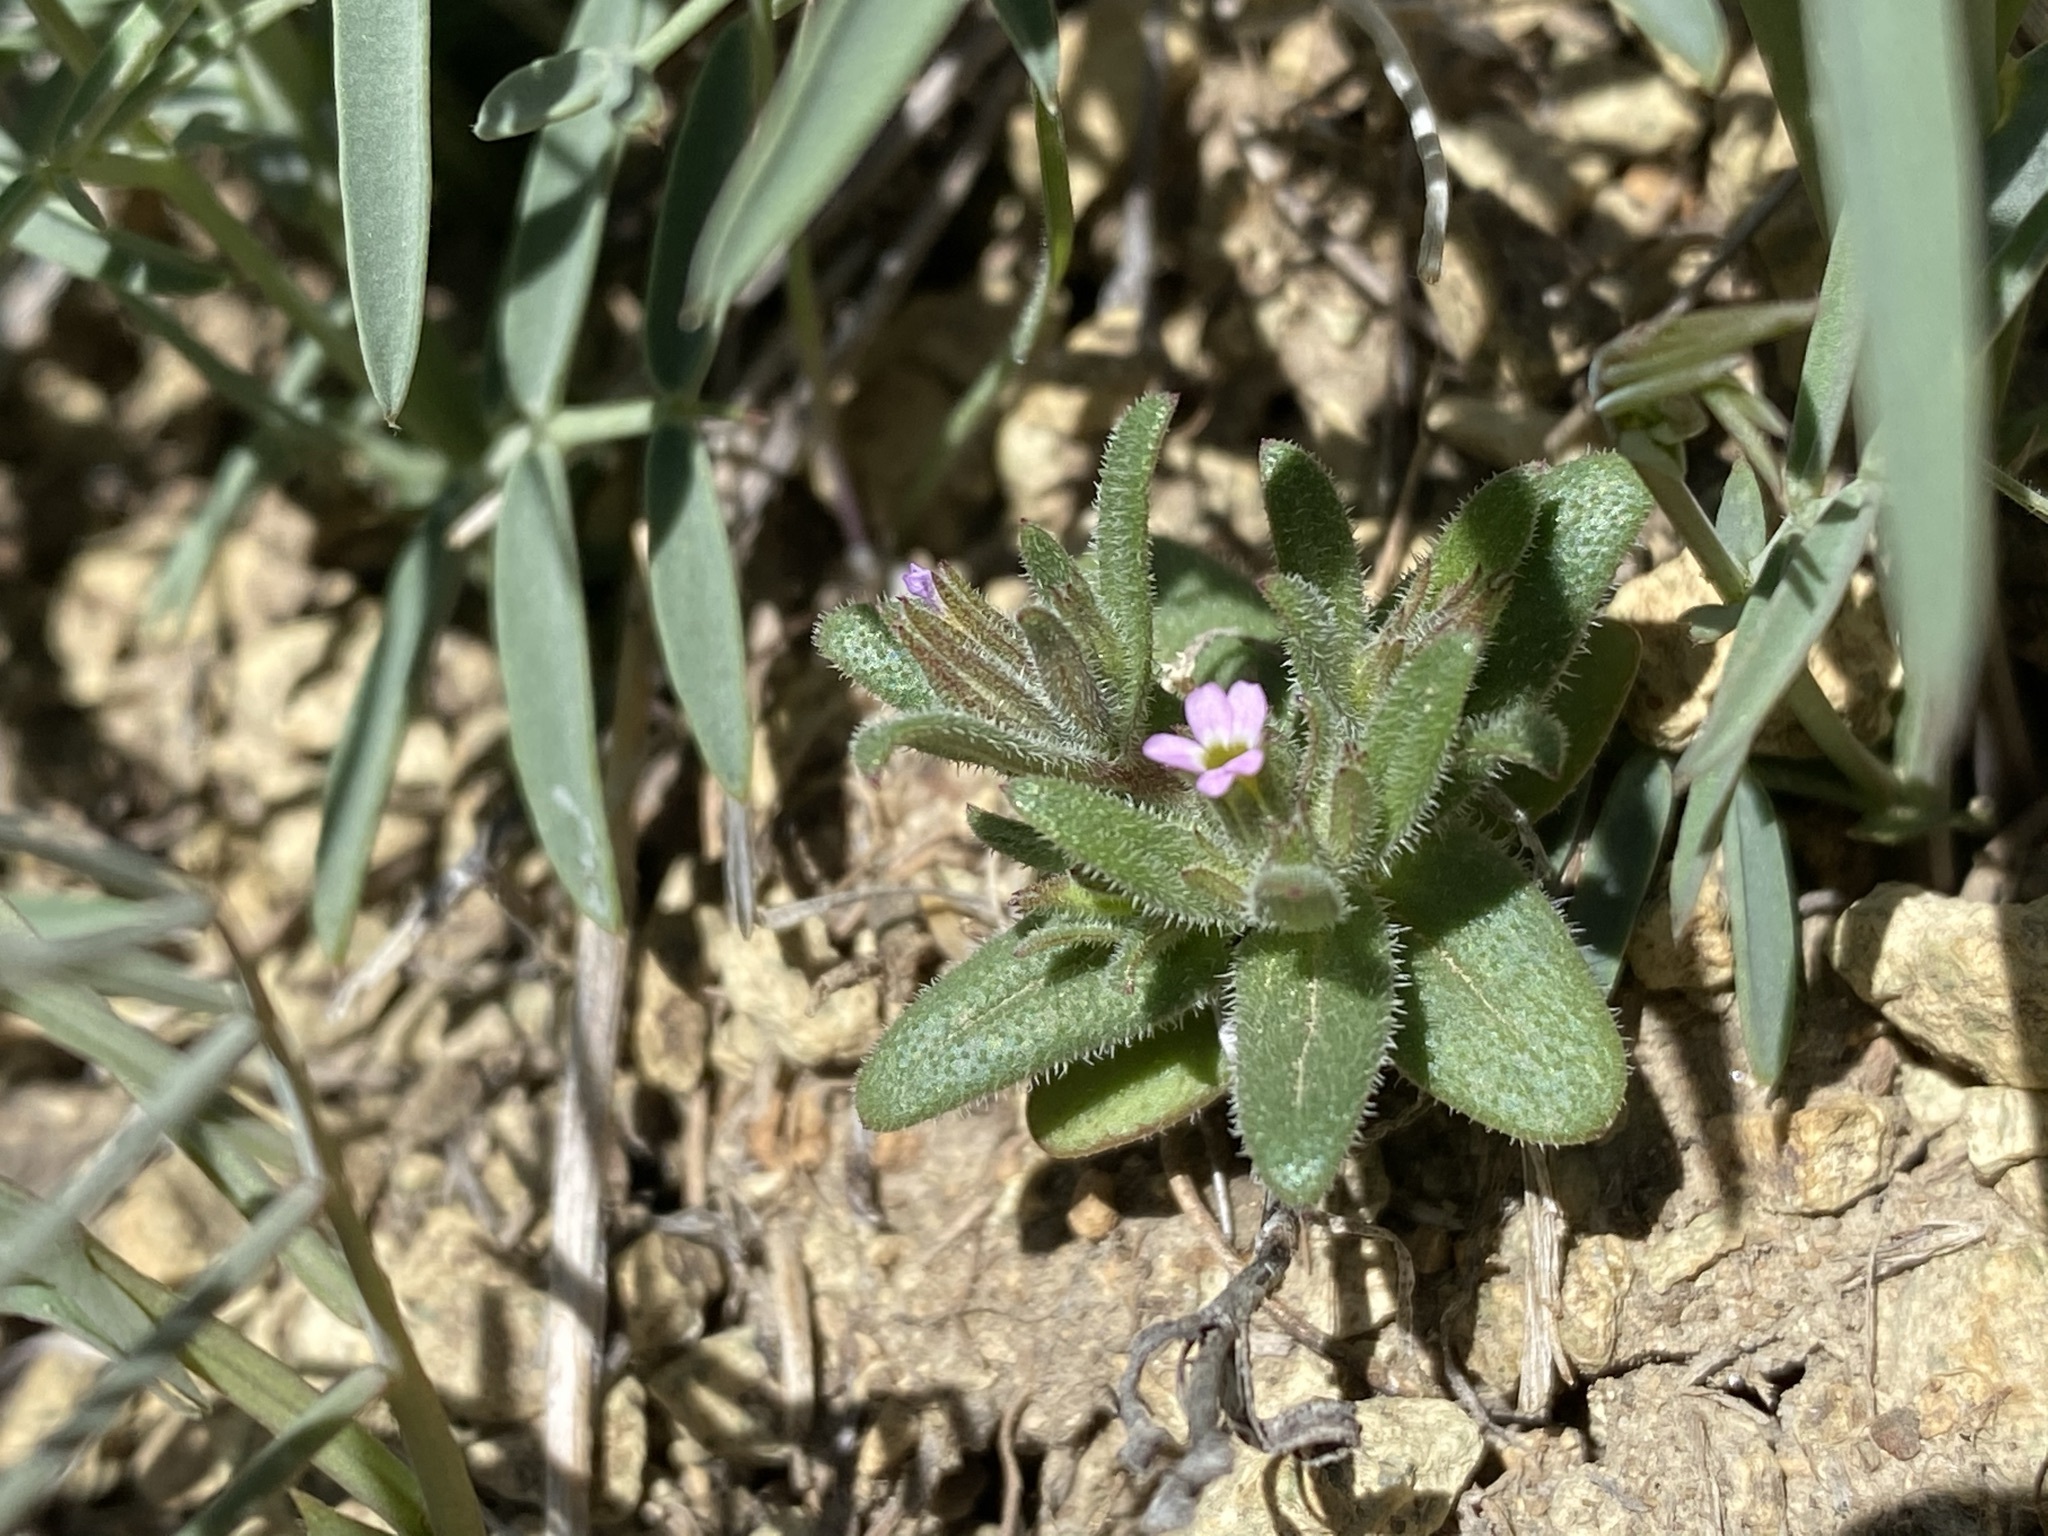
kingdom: Plantae
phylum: Tracheophyta
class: Magnoliopsida
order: Ericales
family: Polemoniaceae
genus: Phlox
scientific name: Phlox gracilis
